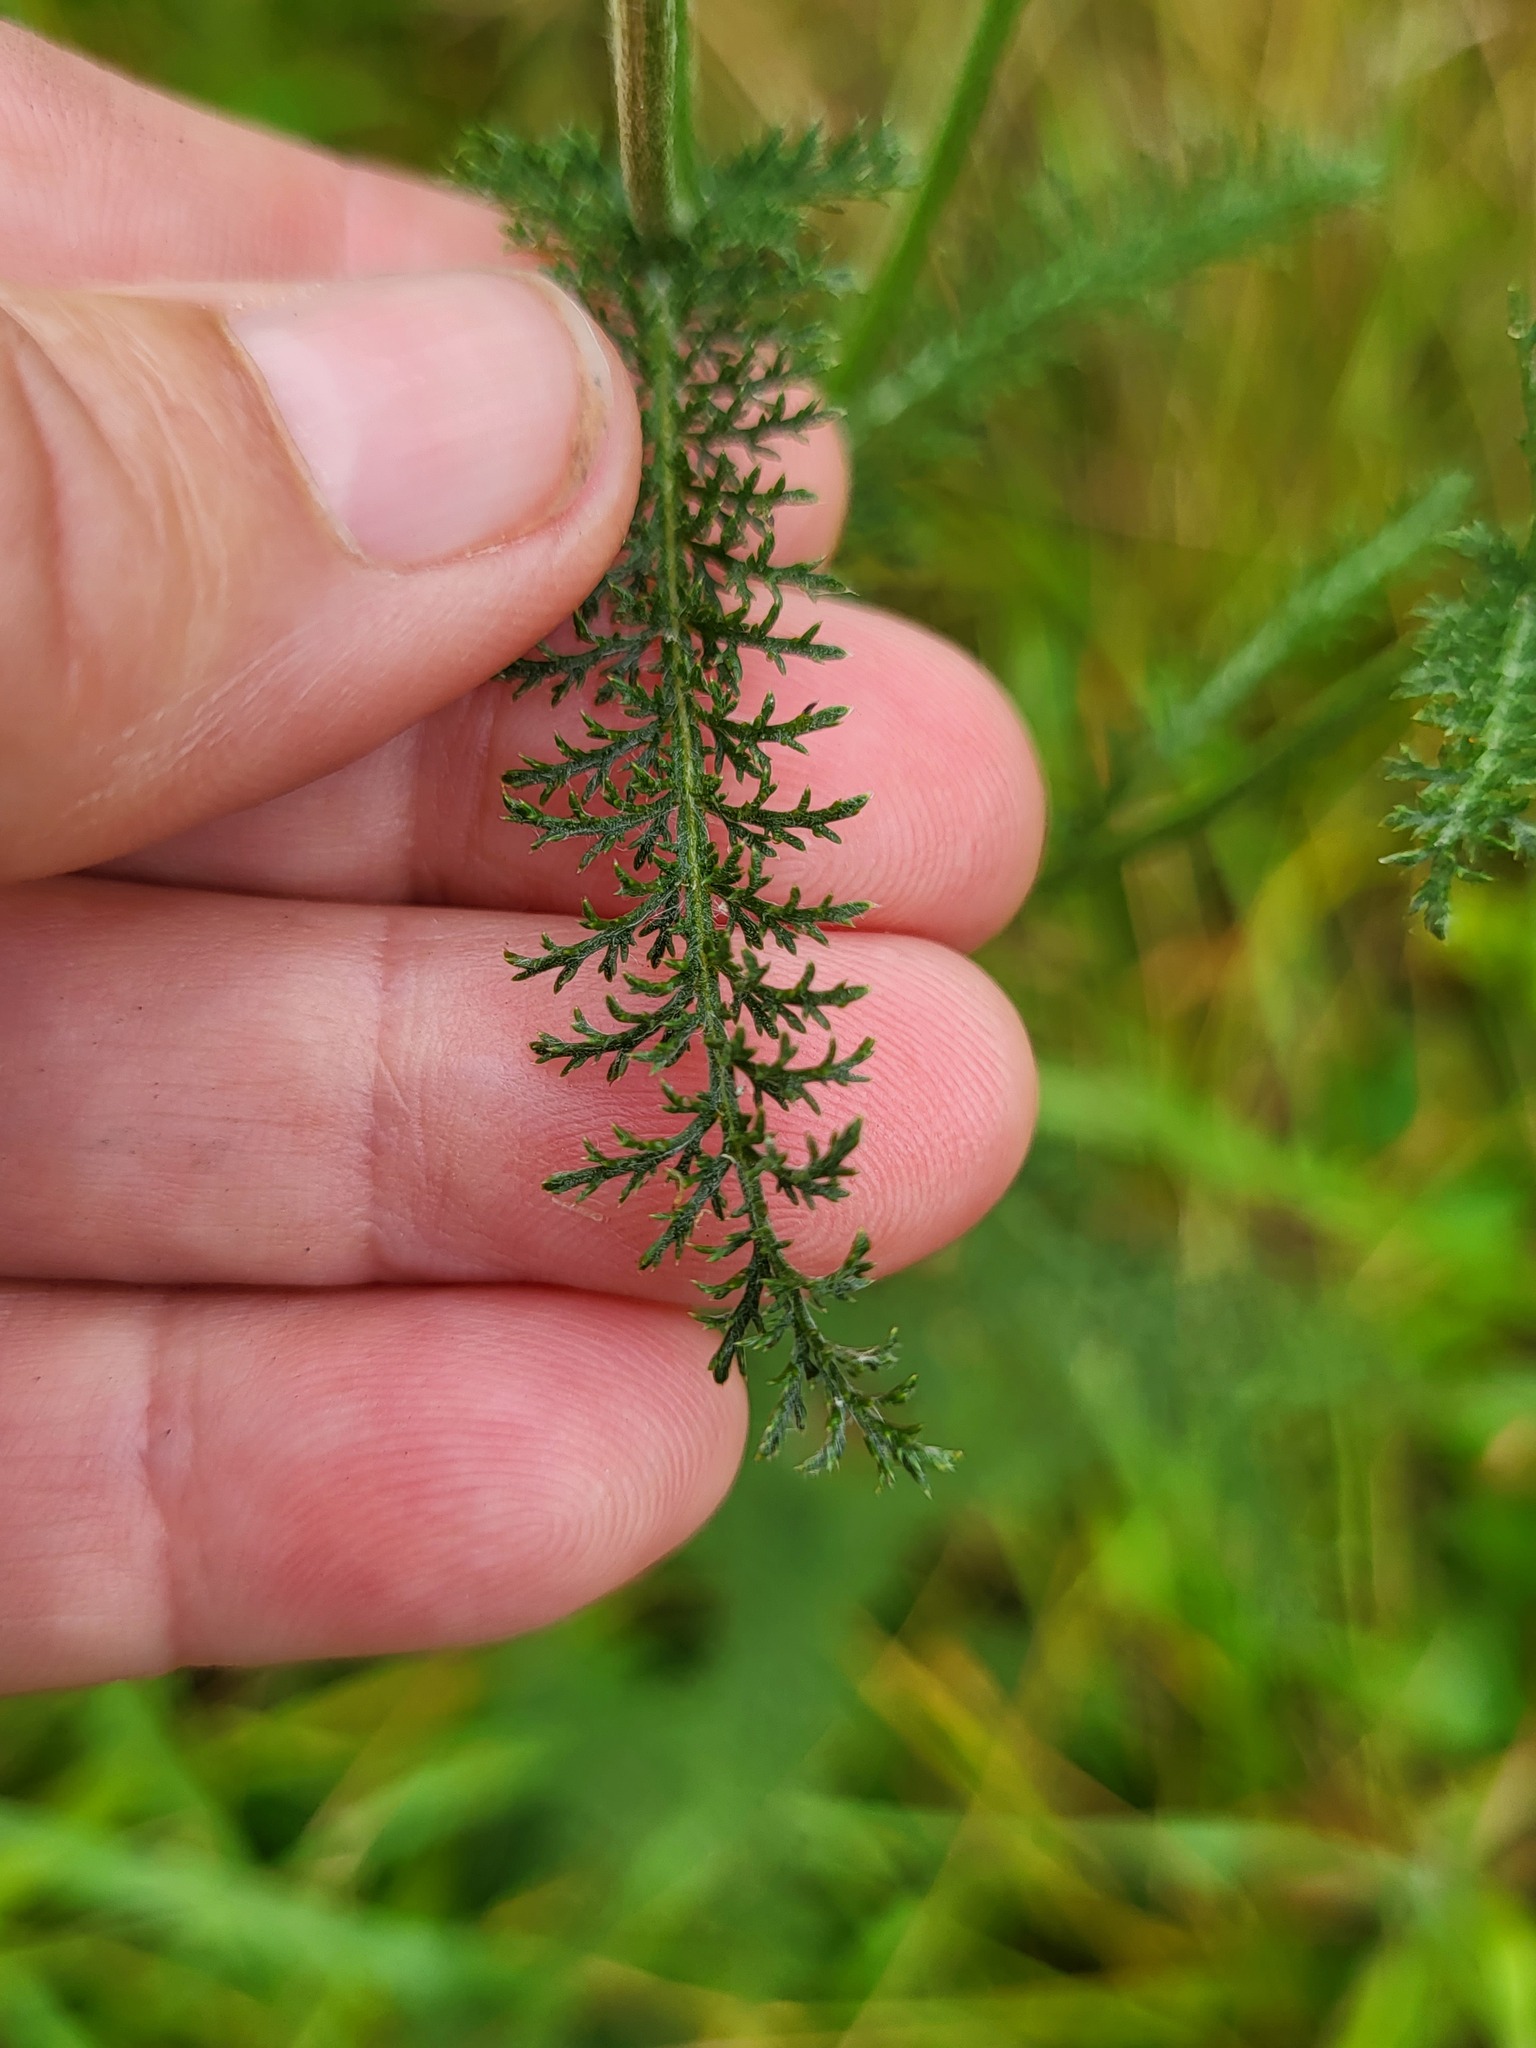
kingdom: Plantae
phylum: Tracheophyta
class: Magnoliopsida
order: Asterales
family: Asteraceae
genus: Achillea
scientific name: Achillea millefolium
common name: Yarrow
